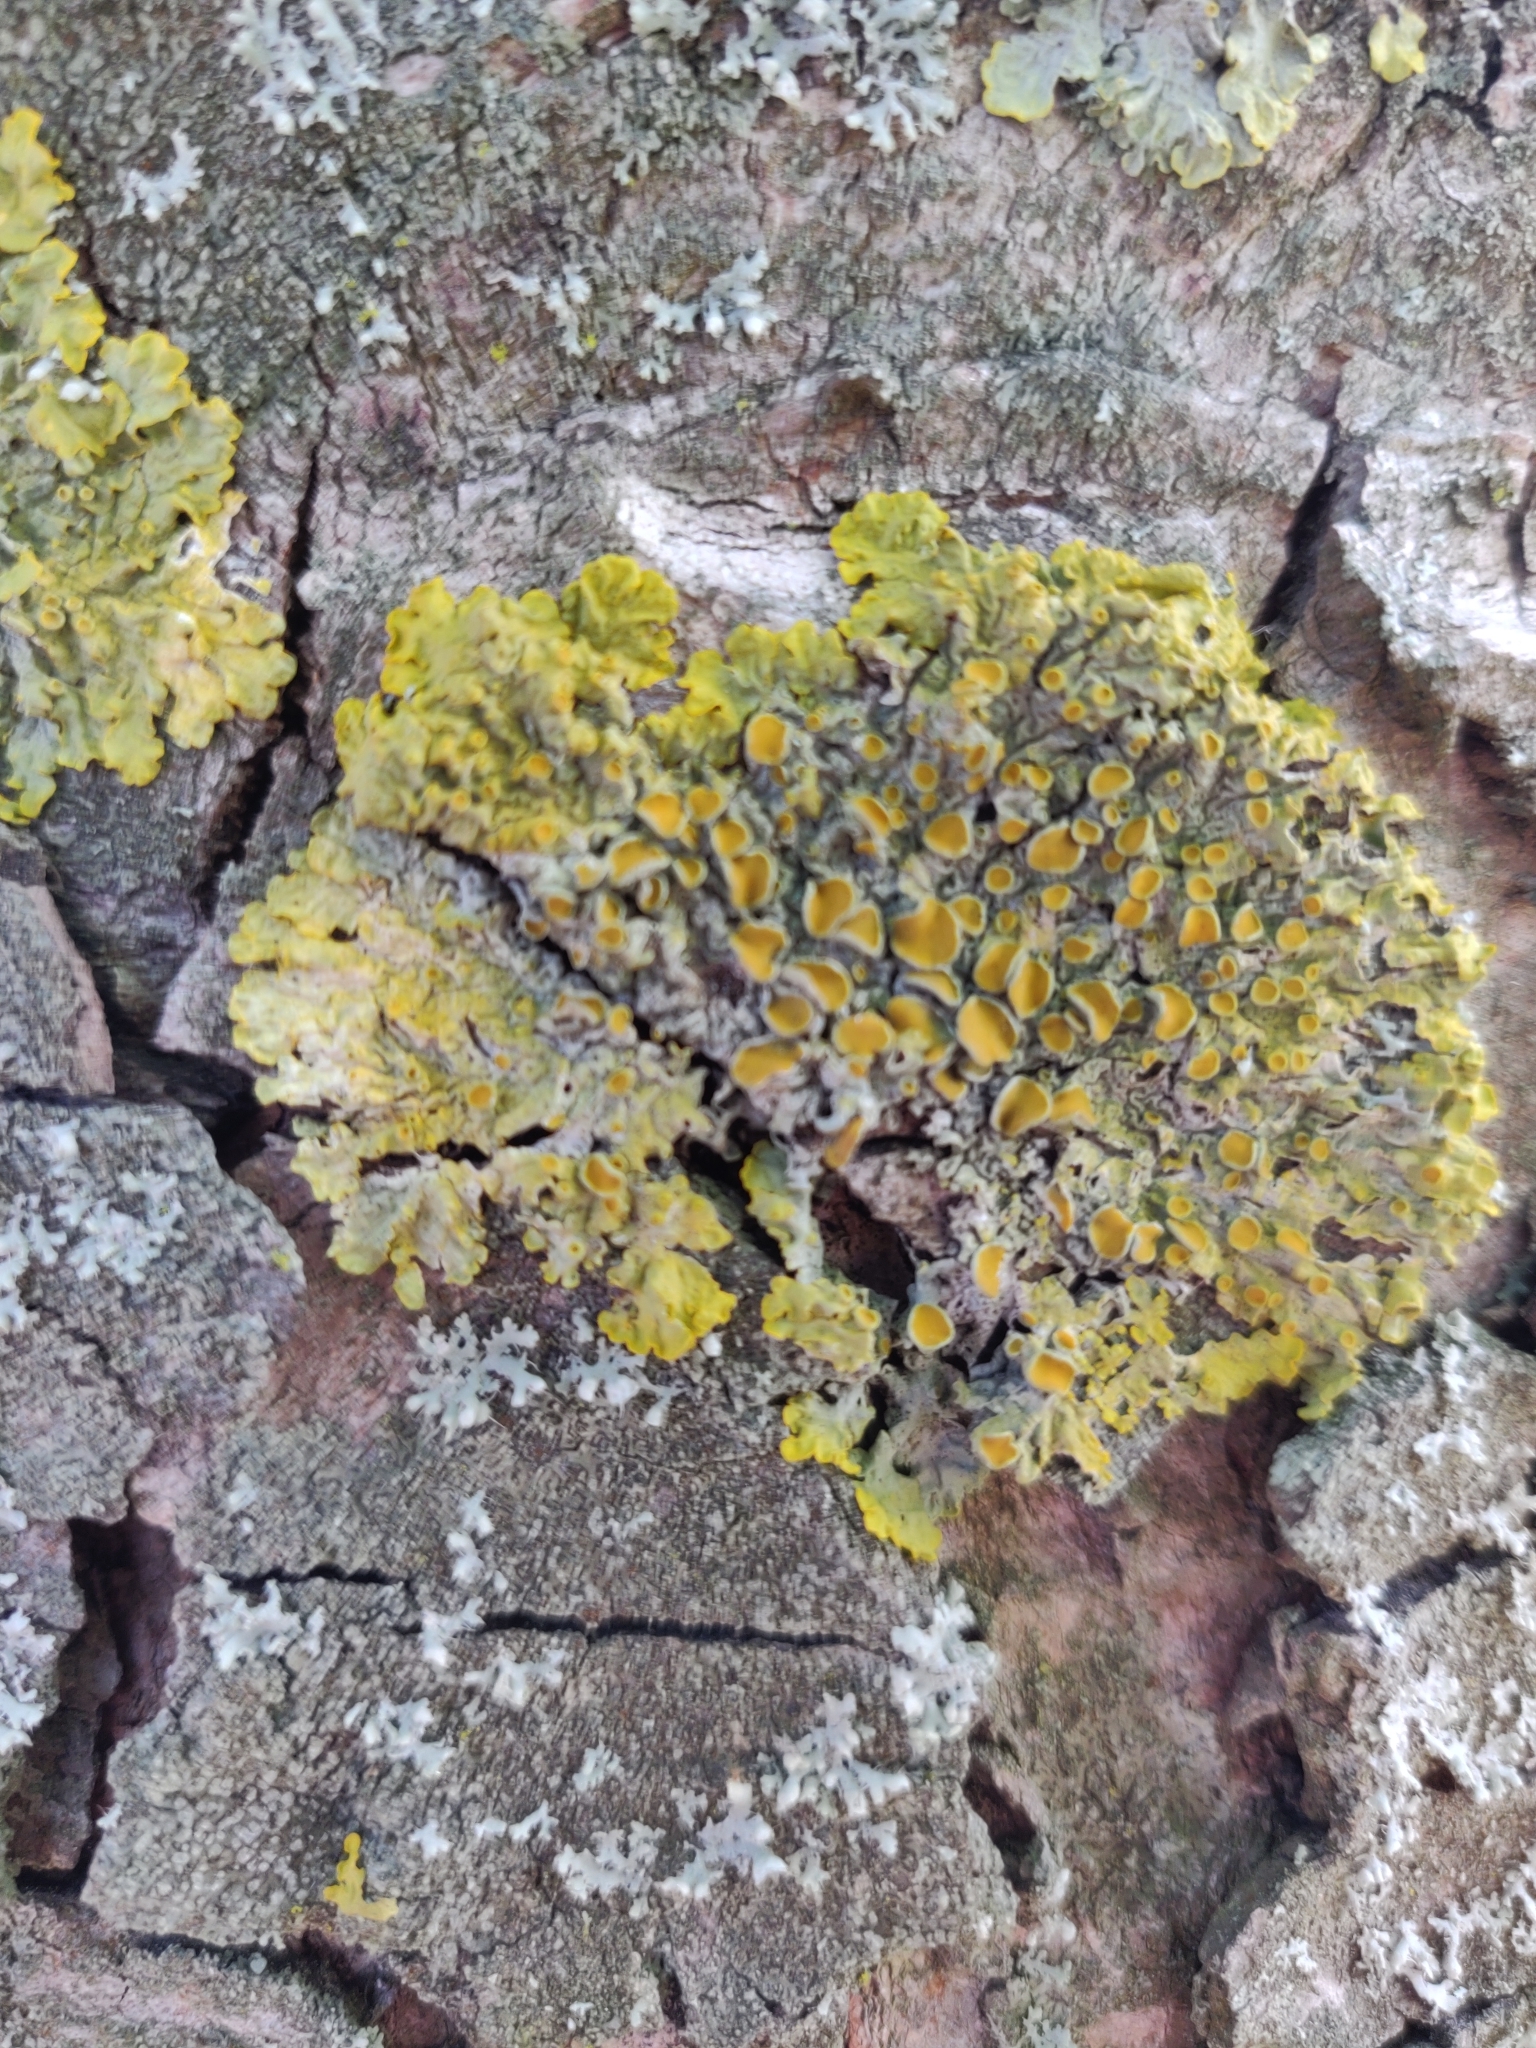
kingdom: Fungi
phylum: Ascomycota
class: Lecanoromycetes
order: Teloschistales
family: Teloschistaceae
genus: Xanthoria
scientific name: Xanthoria parietina
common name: Common orange lichen
